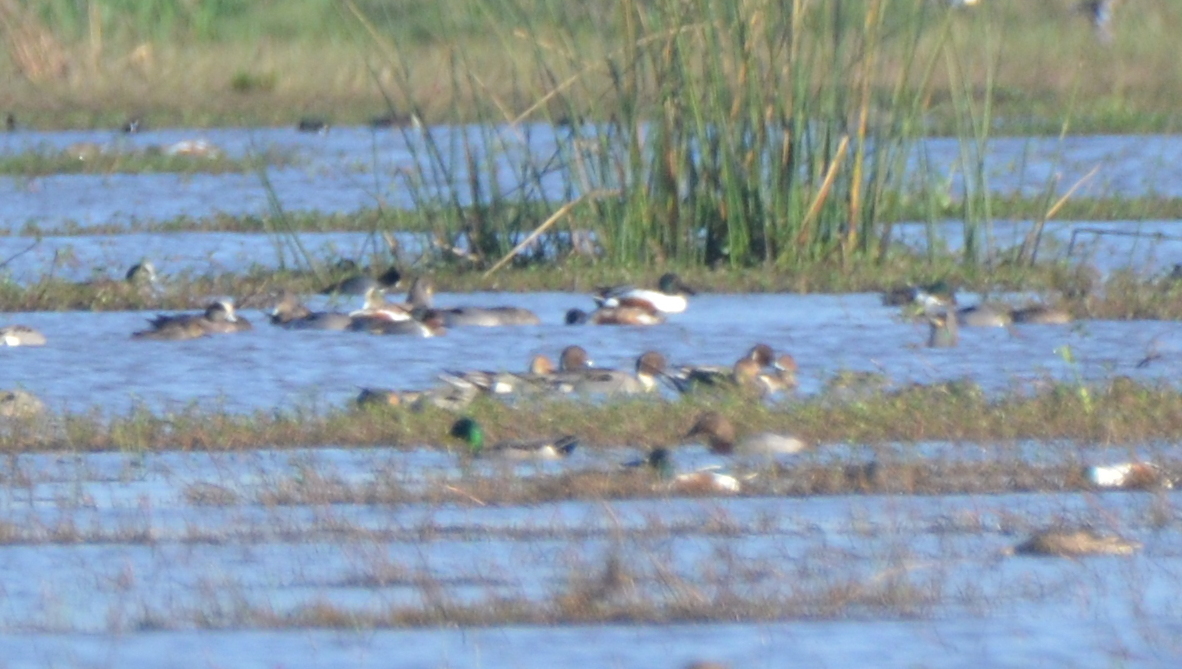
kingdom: Animalia
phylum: Chordata
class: Aves
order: Anseriformes
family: Anatidae
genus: Aythya
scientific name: Aythya valisineria
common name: Canvasback
